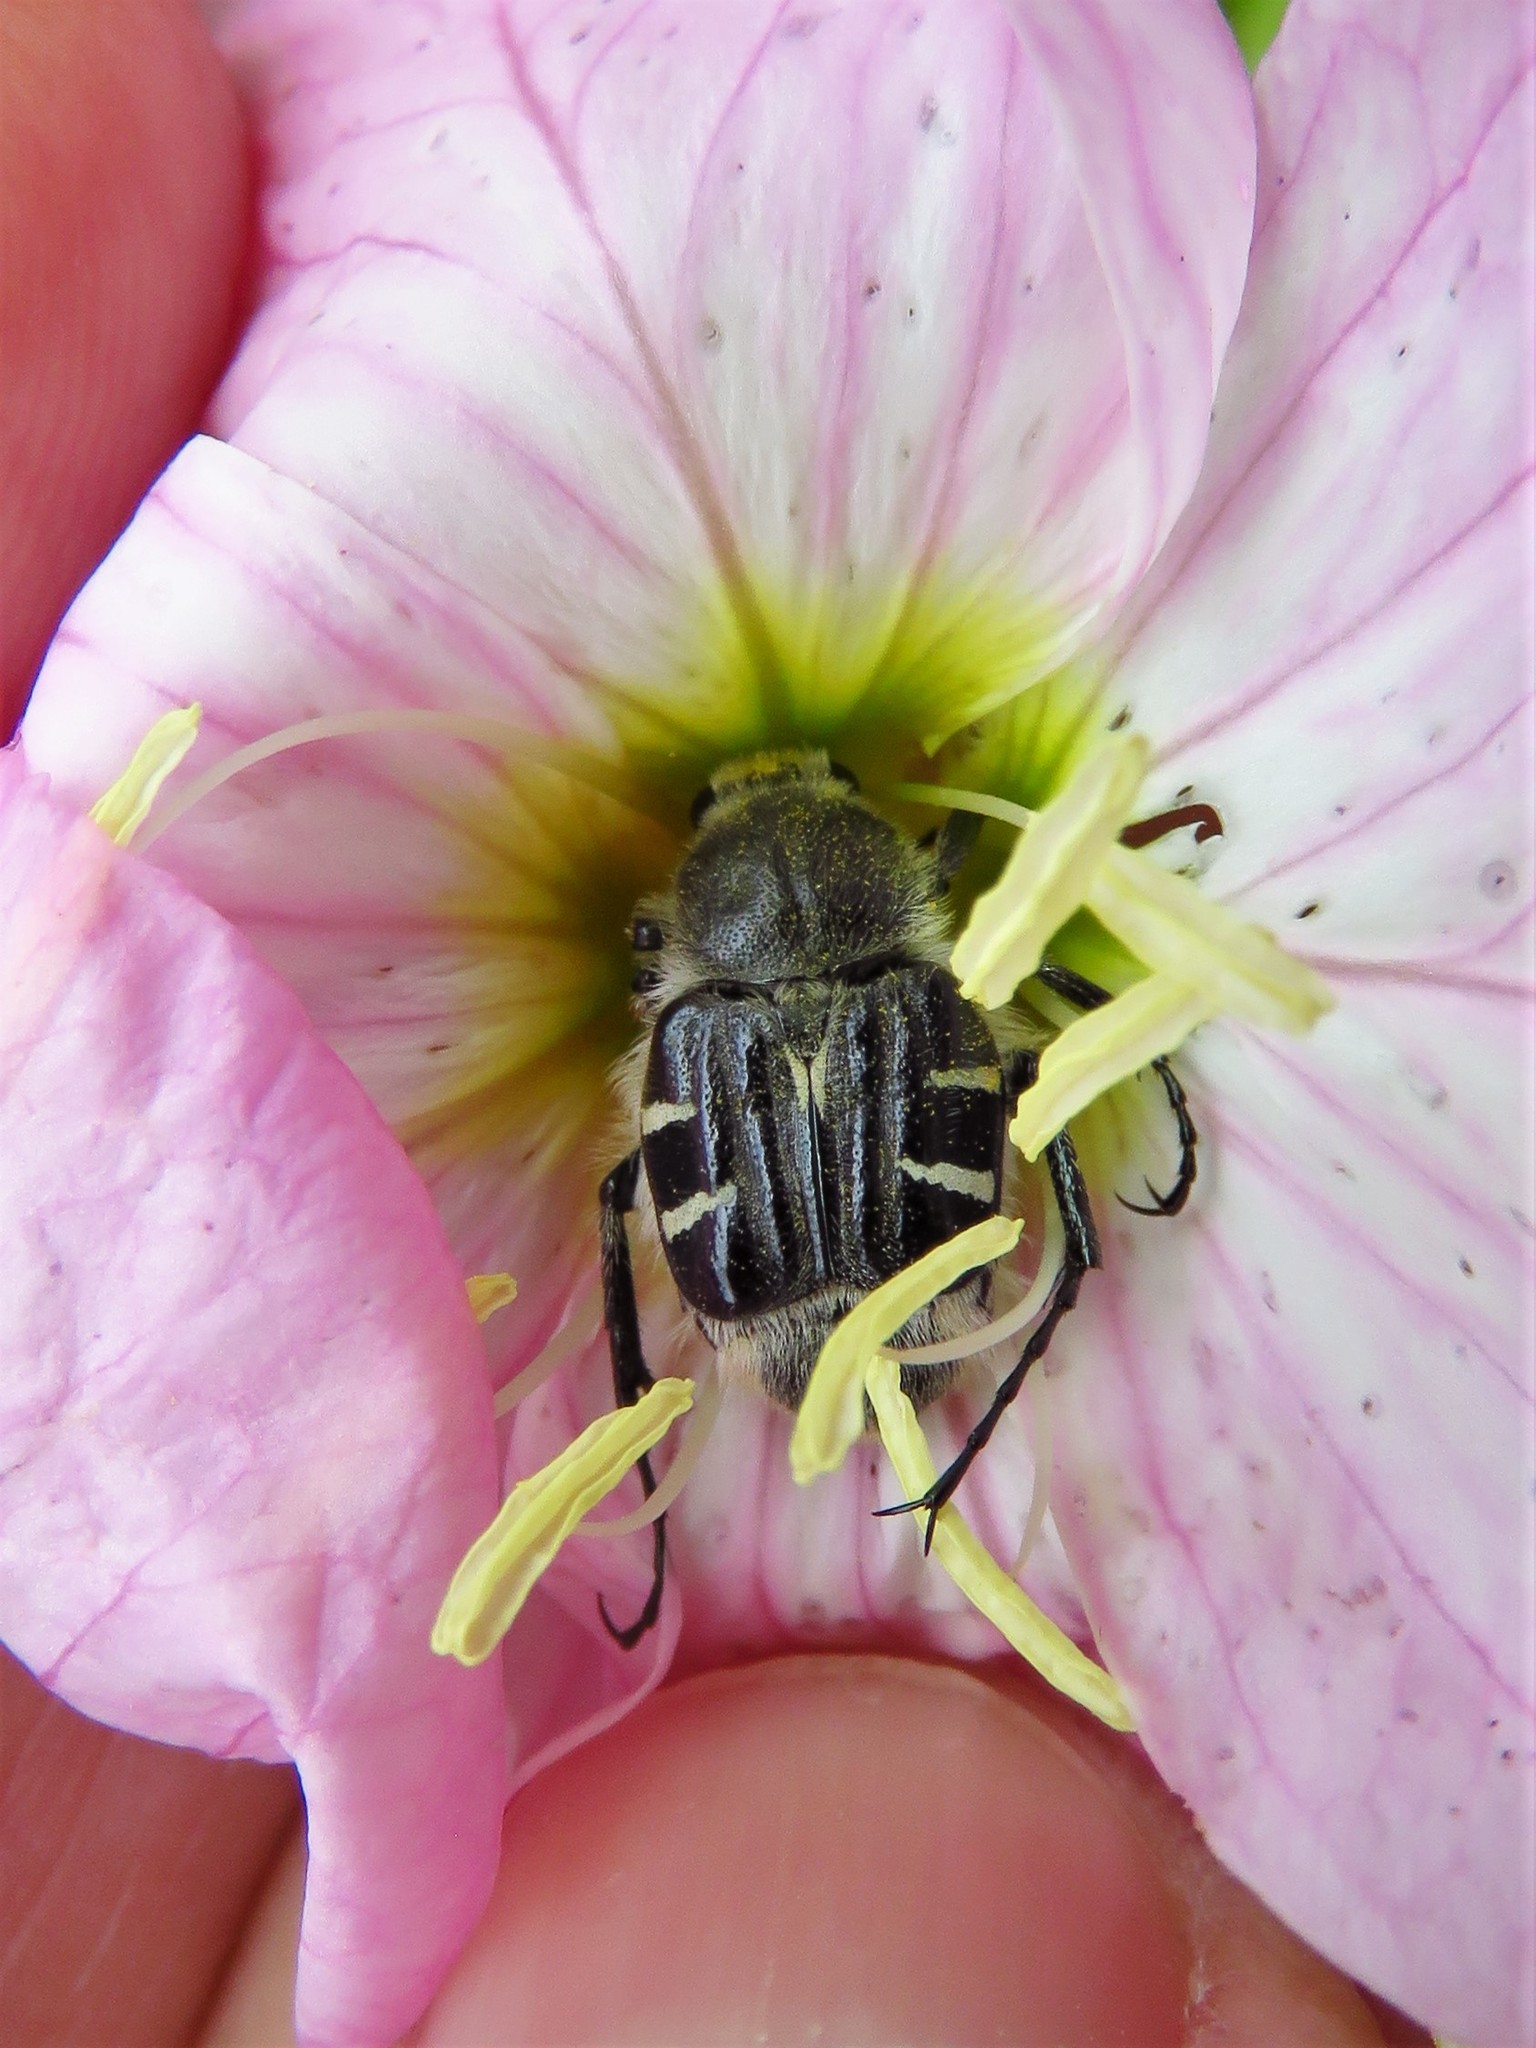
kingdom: Animalia
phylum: Arthropoda
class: Insecta
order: Coleoptera
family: Scarabaeidae
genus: Trichiotinus
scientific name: Trichiotinus texanus
